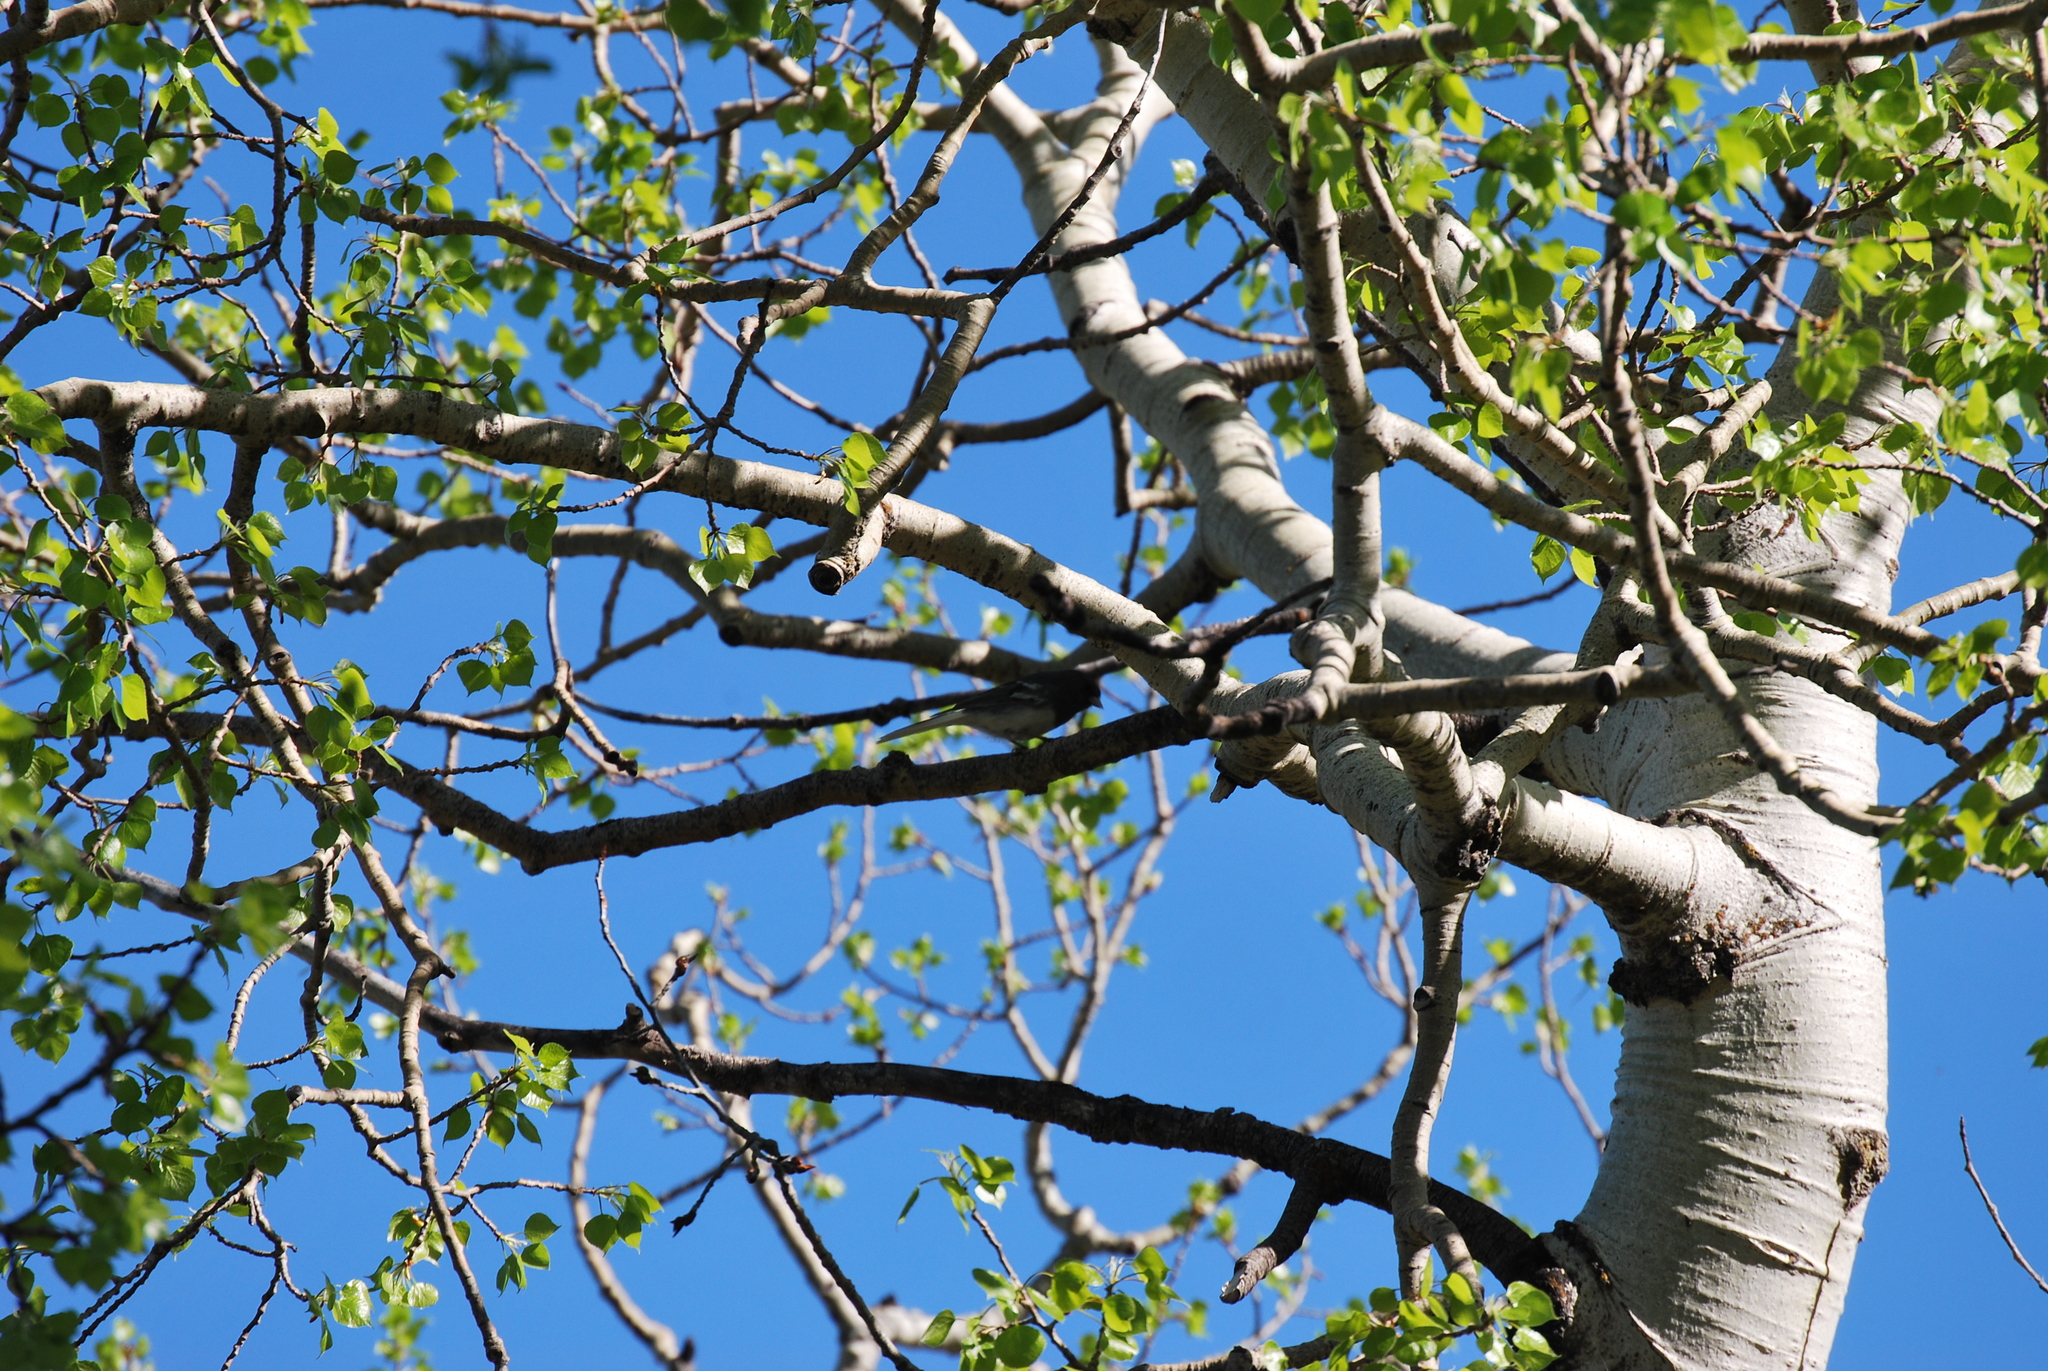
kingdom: Animalia
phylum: Chordata
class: Aves
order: Passeriformes
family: Passerellidae
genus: Junco
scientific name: Junco hyemalis
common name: Dark-eyed junco
